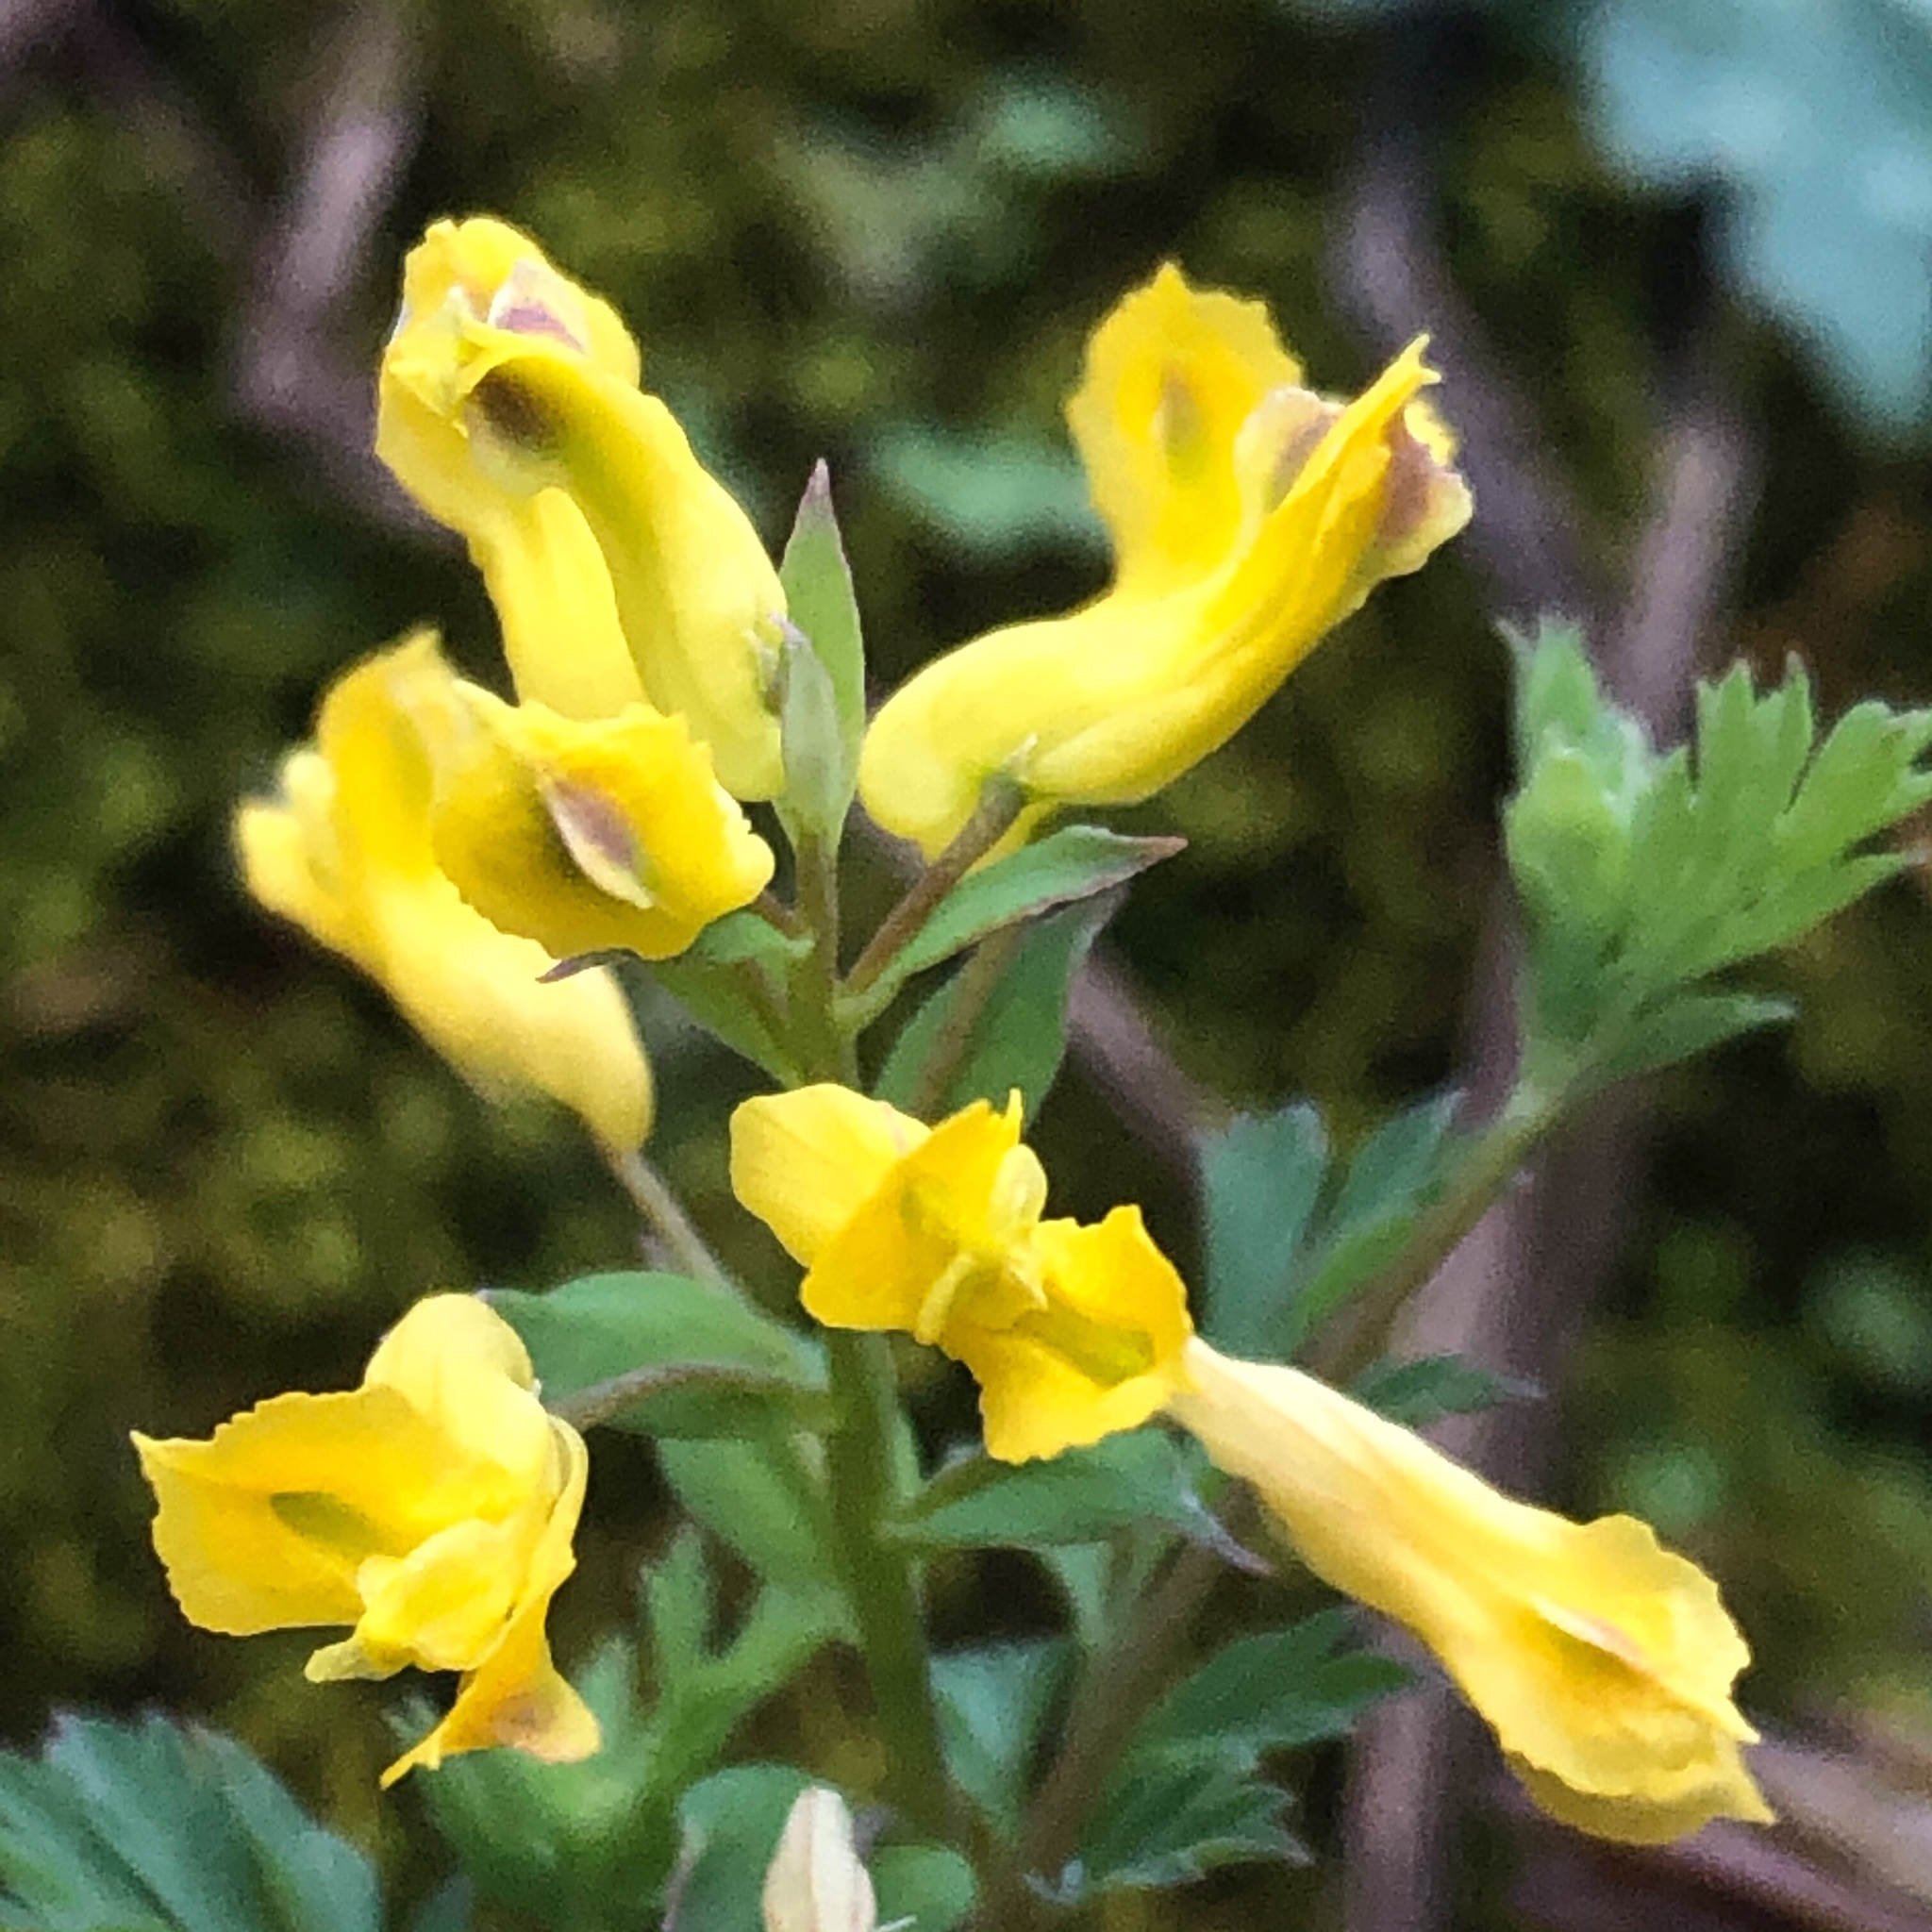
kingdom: Plantae
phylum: Tracheophyta
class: Magnoliopsida
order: Ranunculales
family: Papaveraceae
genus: Corydalis
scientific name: Corydalis flavula
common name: Yellow corydalis
